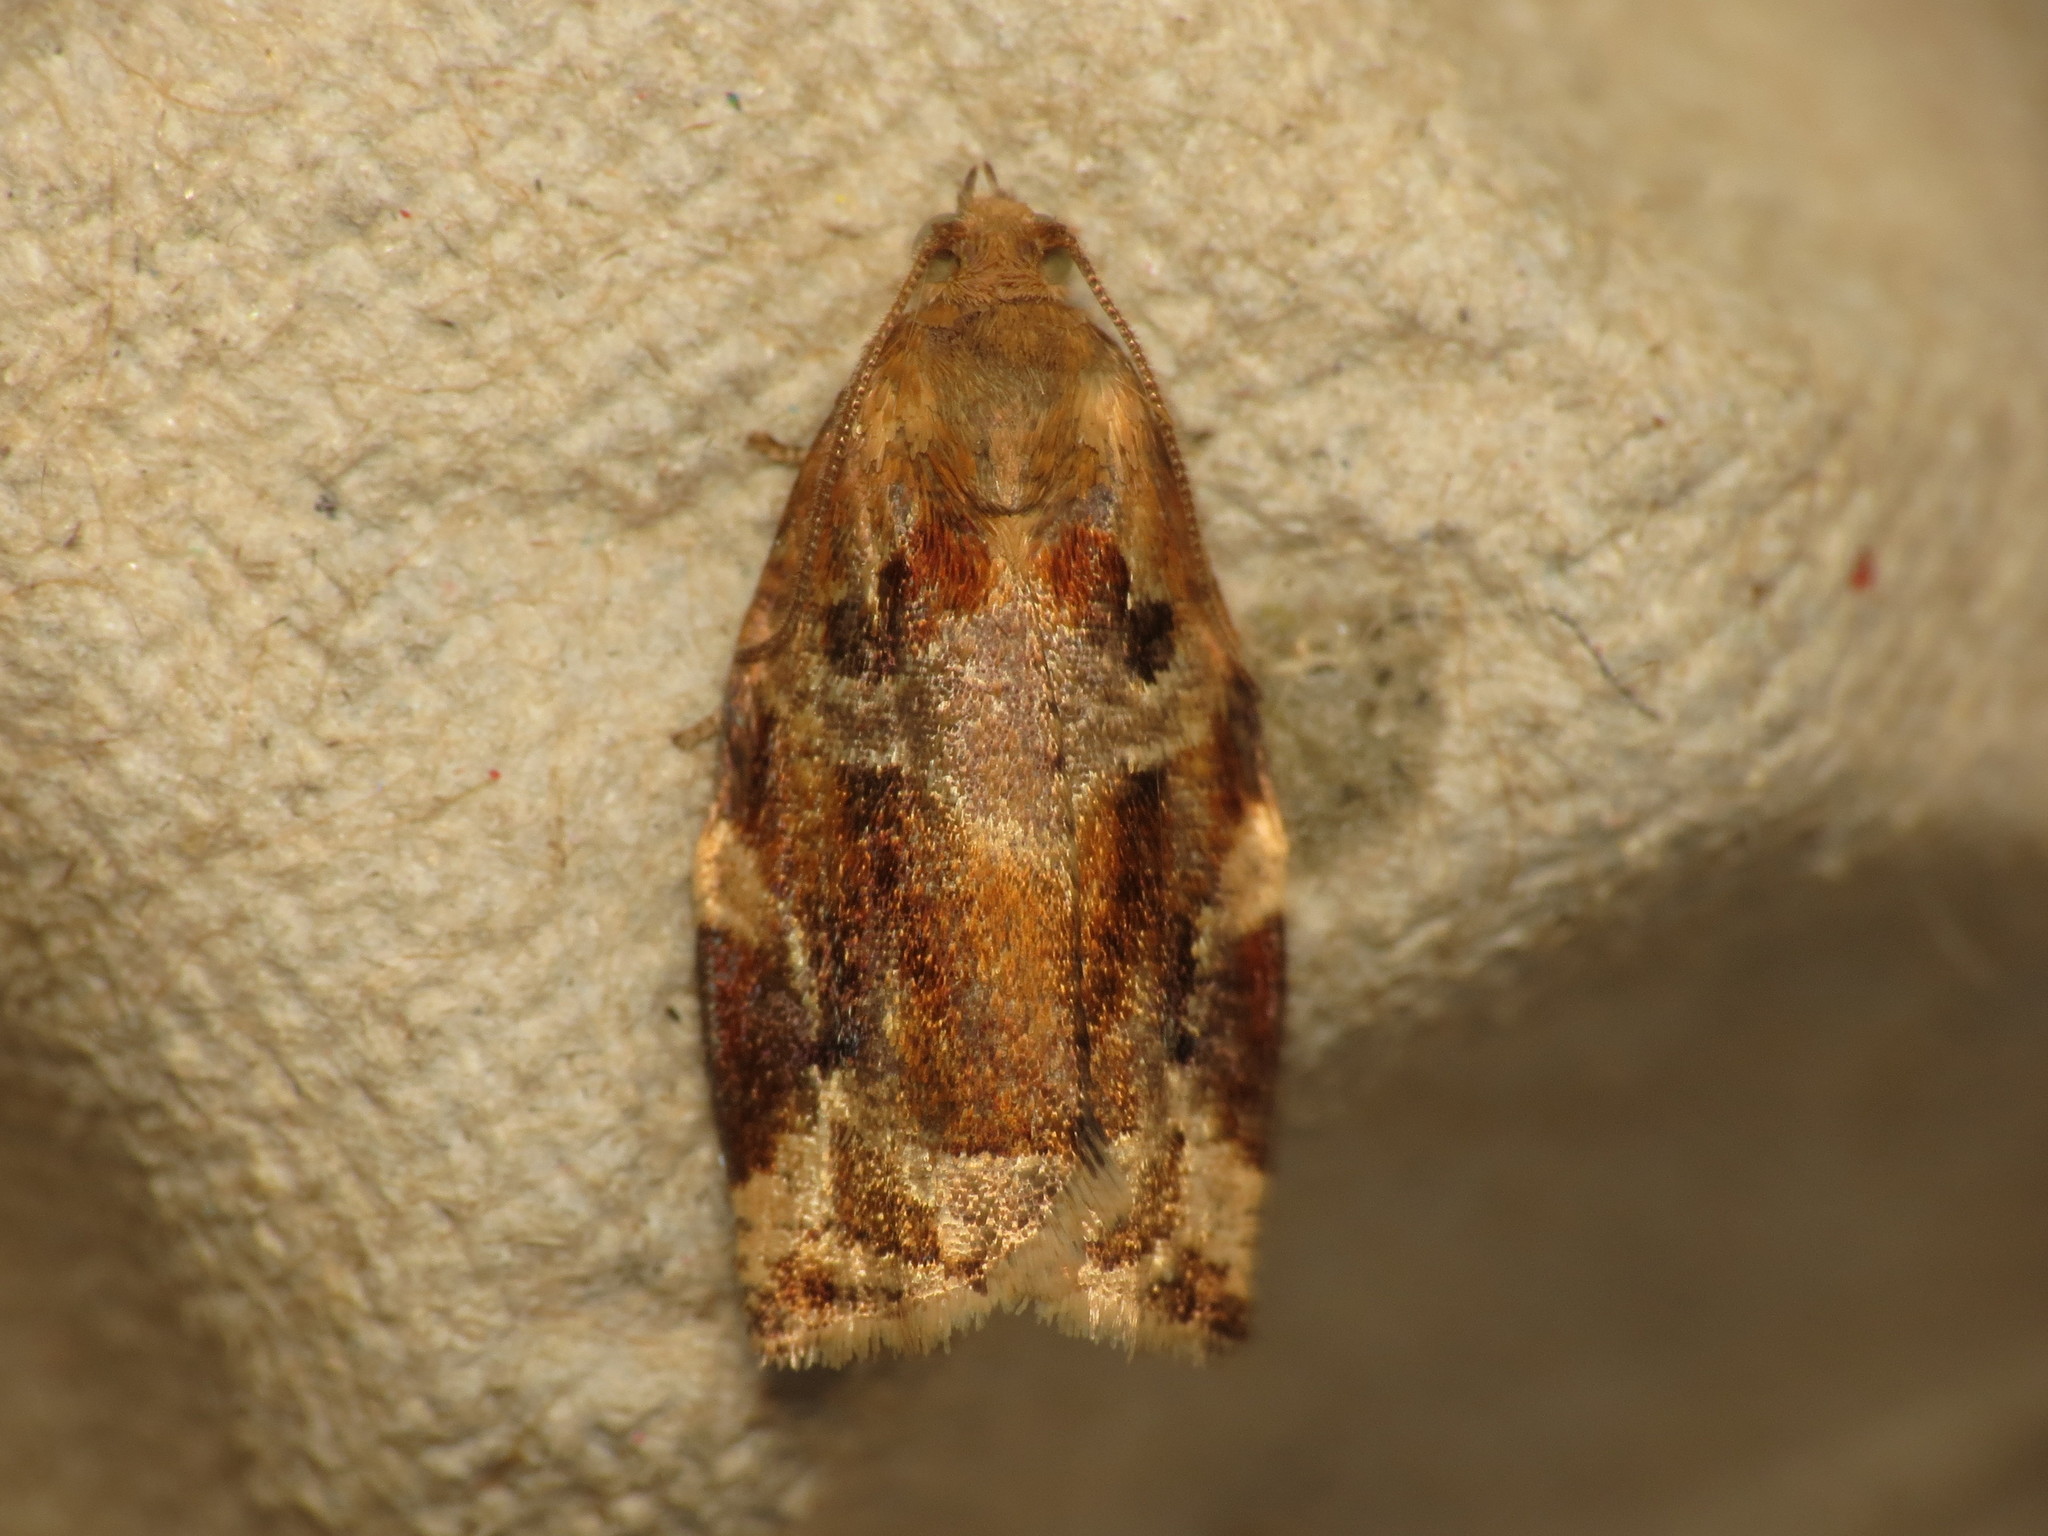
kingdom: Animalia
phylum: Arthropoda
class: Insecta
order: Lepidoptera
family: Tortricidae
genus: Archips
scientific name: Archips xylosteana
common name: Variegated golden tortrix
